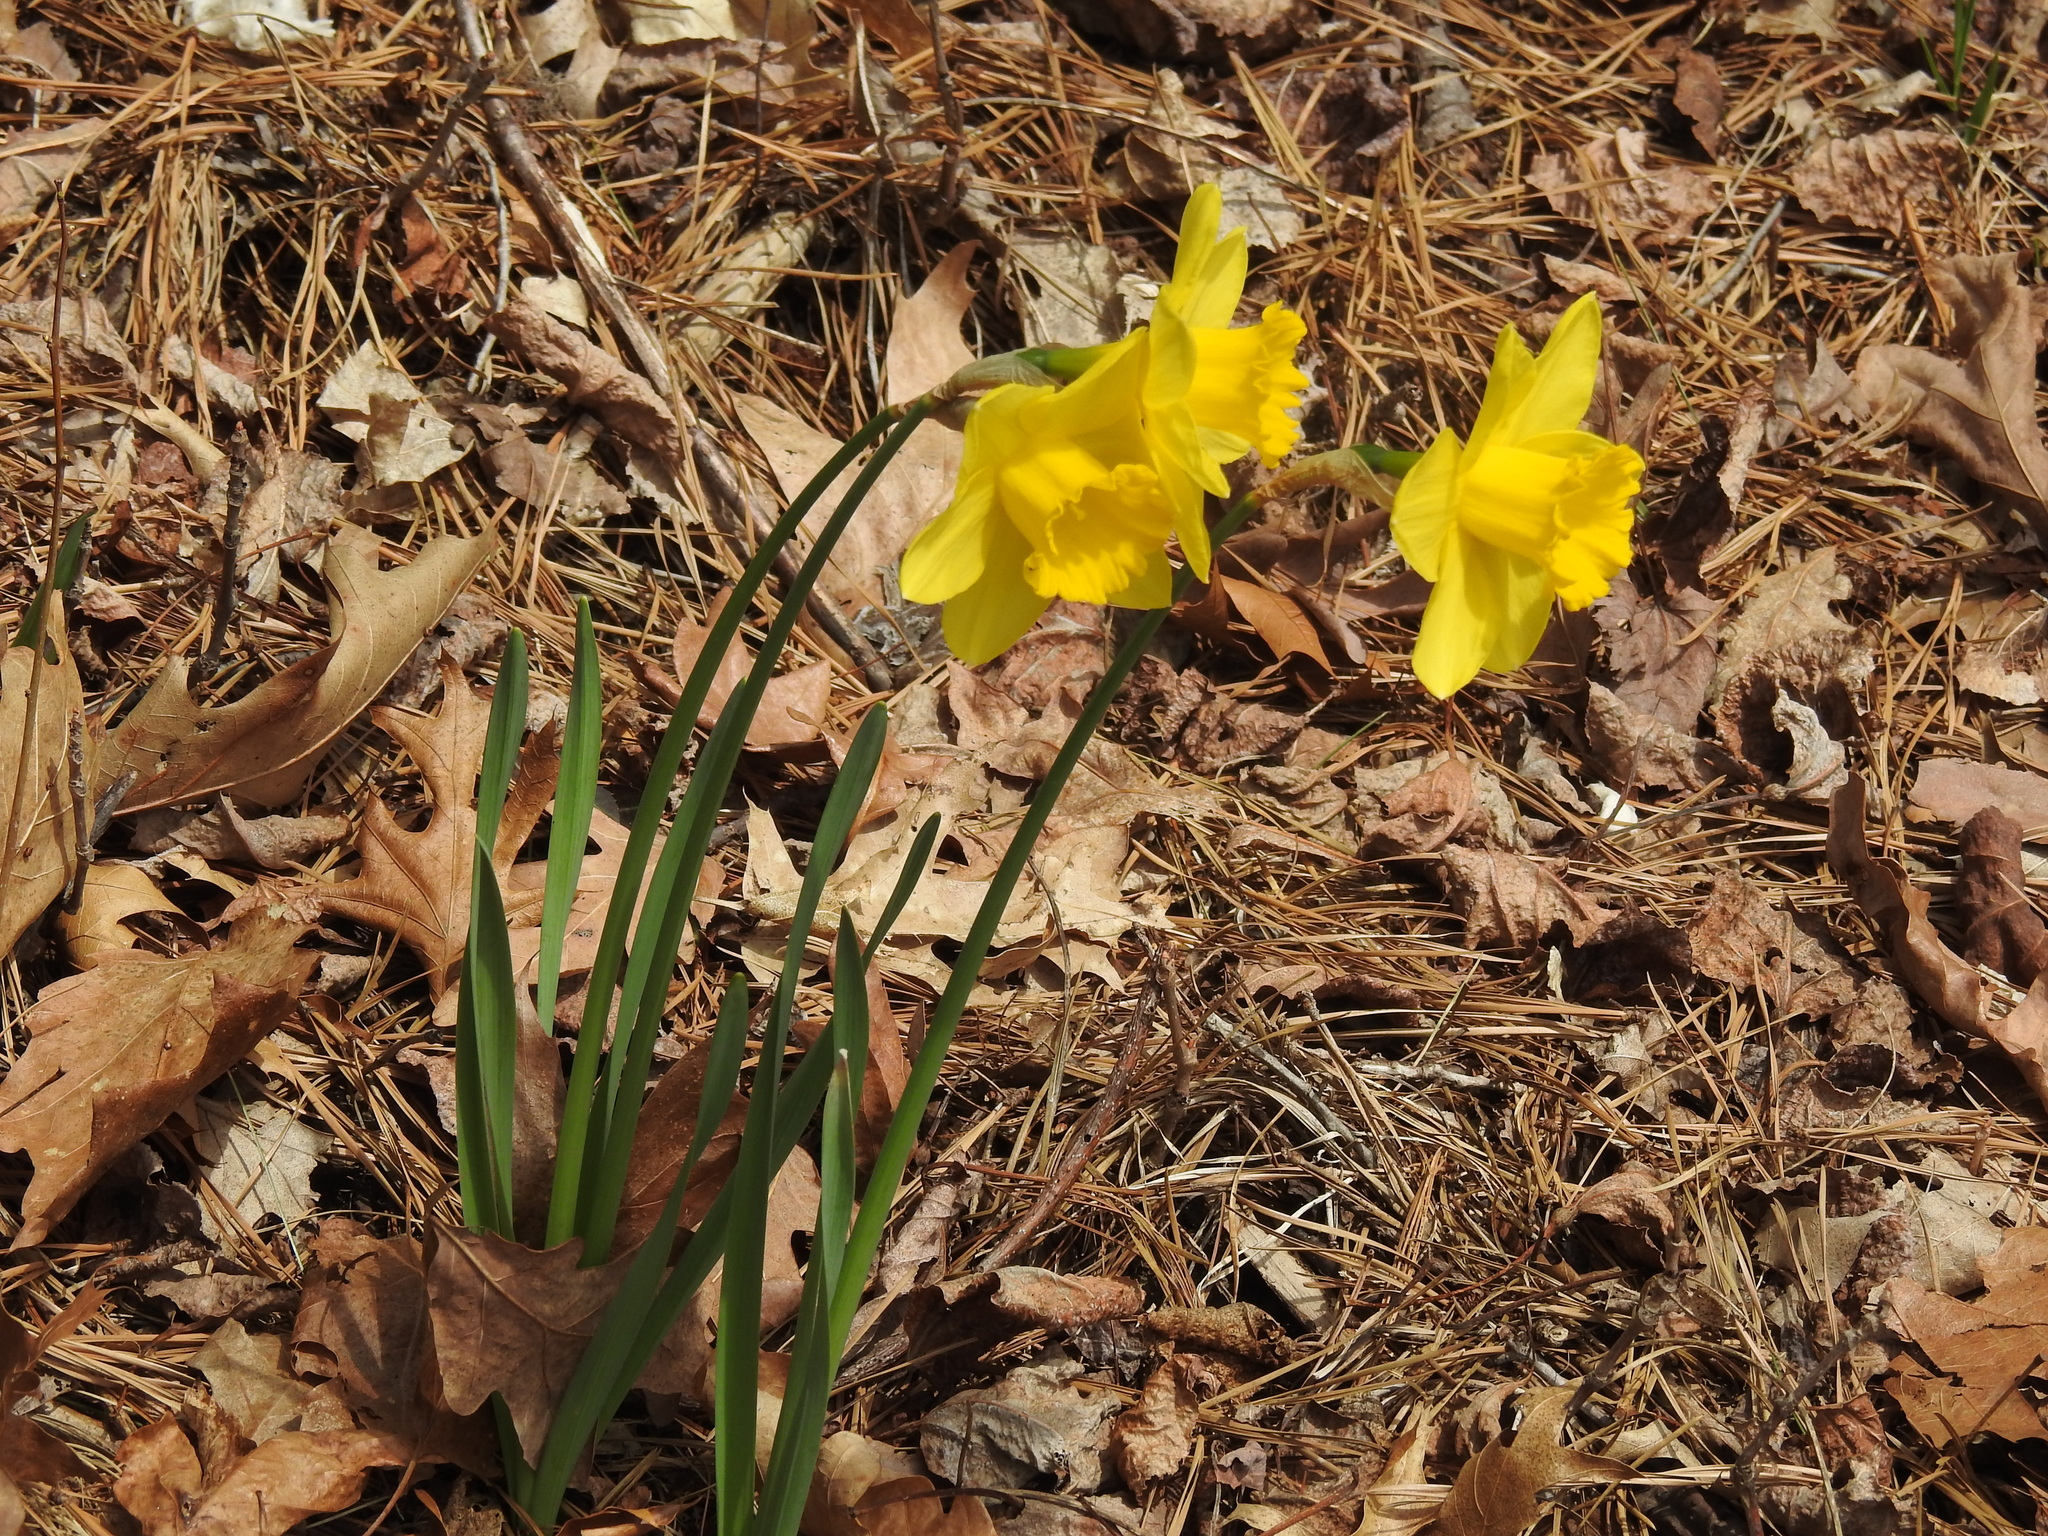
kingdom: Plantae
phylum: Tracheophyta
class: Liliopsida
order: Asparagales
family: Amaryllidaceae
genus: Narcissus
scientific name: Narcissus pseudonarcissus
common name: Daffodil
